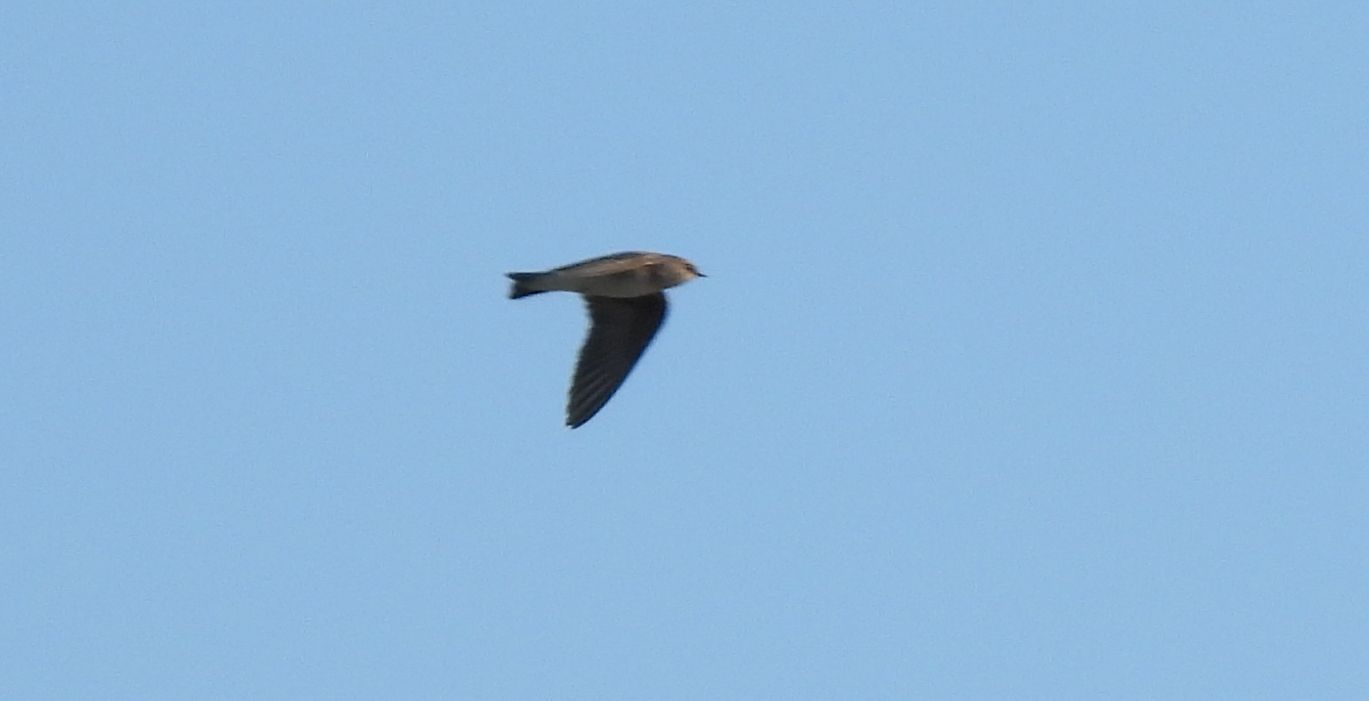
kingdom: Animalia
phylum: Chordata
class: Aves
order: Passeriformes
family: Hirundinidae
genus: Stelgidopteryx
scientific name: Stelgidopteryx serripennis
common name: Northern rough-winged swallow
